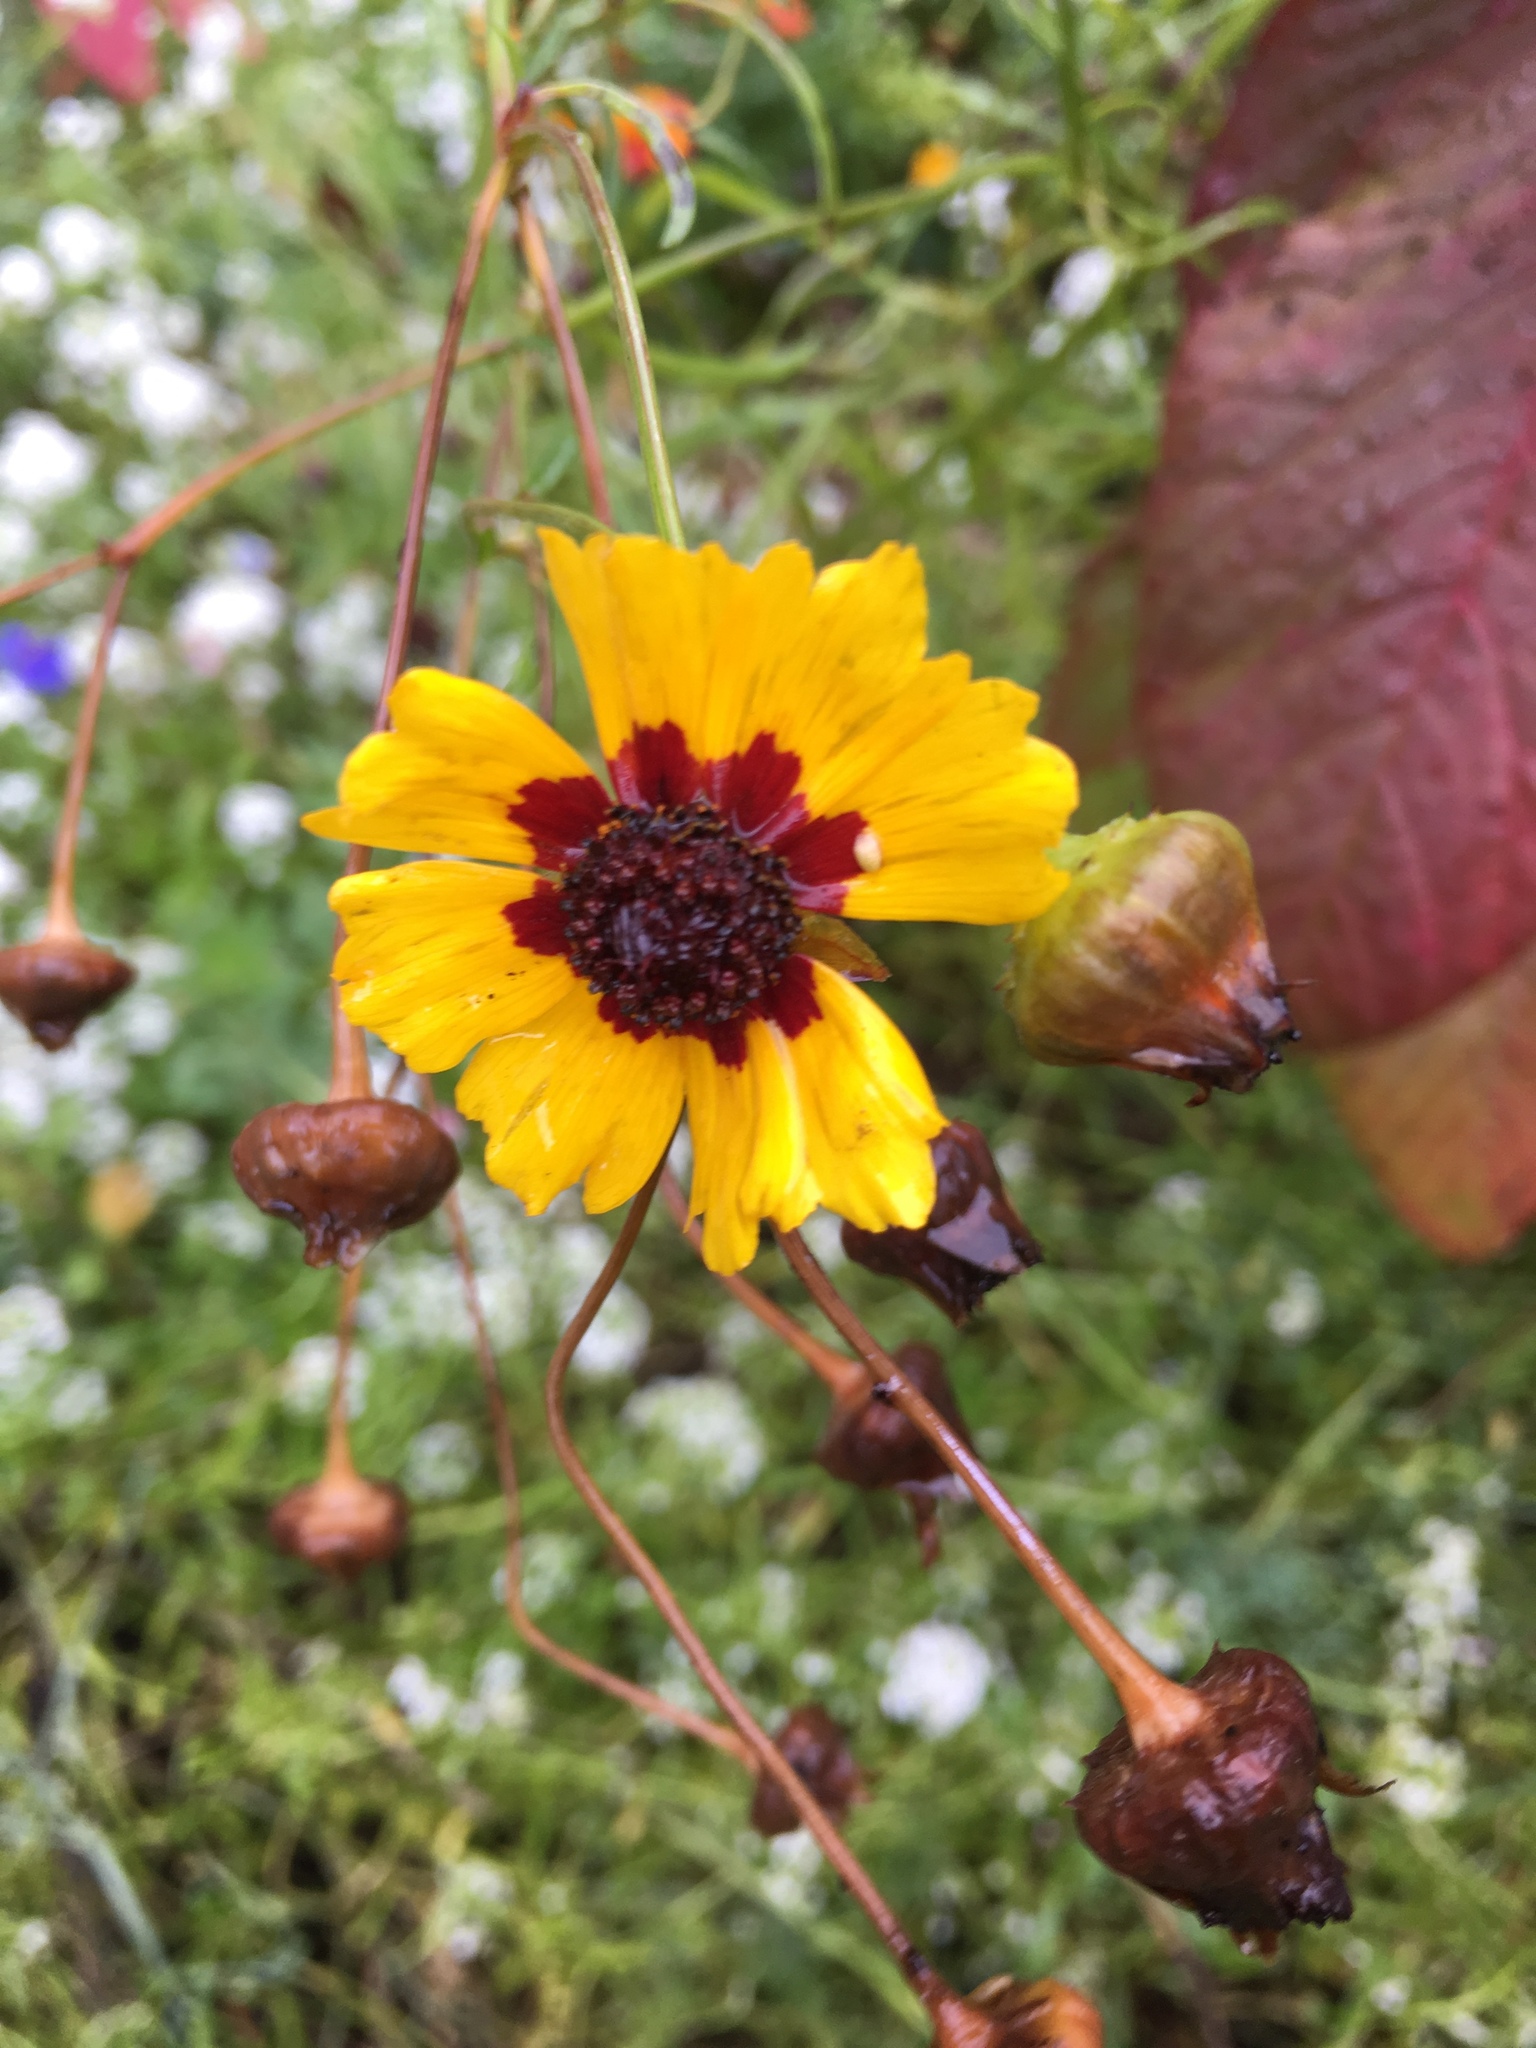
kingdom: Plantae
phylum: Tracheophyta
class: Magnoliopsida
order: Asterales
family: Asteraceae
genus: Coreopsis
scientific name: Coreopsis tinctoria
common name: Garden tickseed
